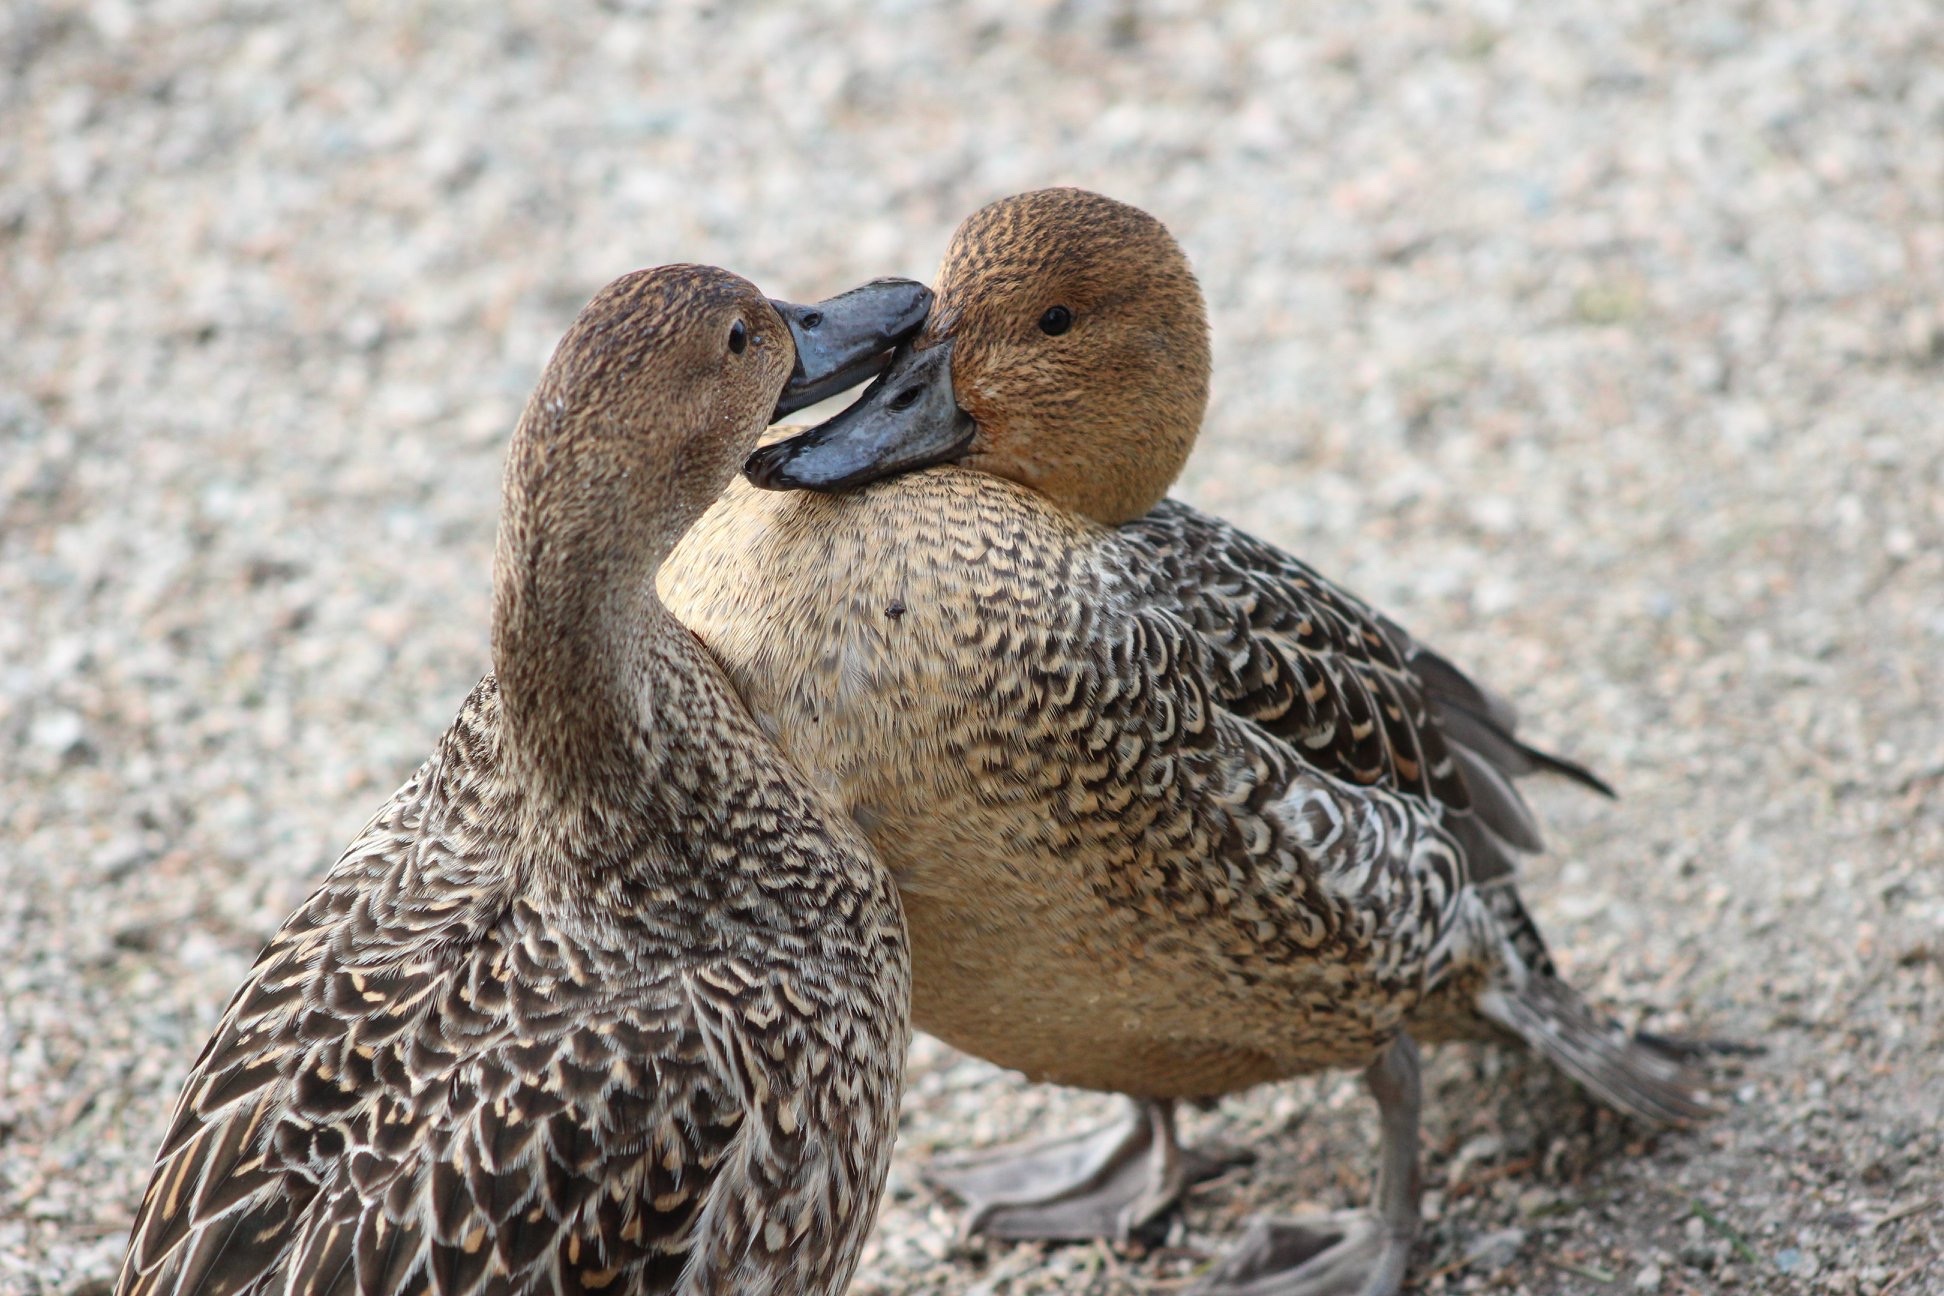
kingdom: Animalia
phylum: Chordata
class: Aves
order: Anseriformes
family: Anatidae
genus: Anas
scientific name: Anas acuta
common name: Northern pintail
